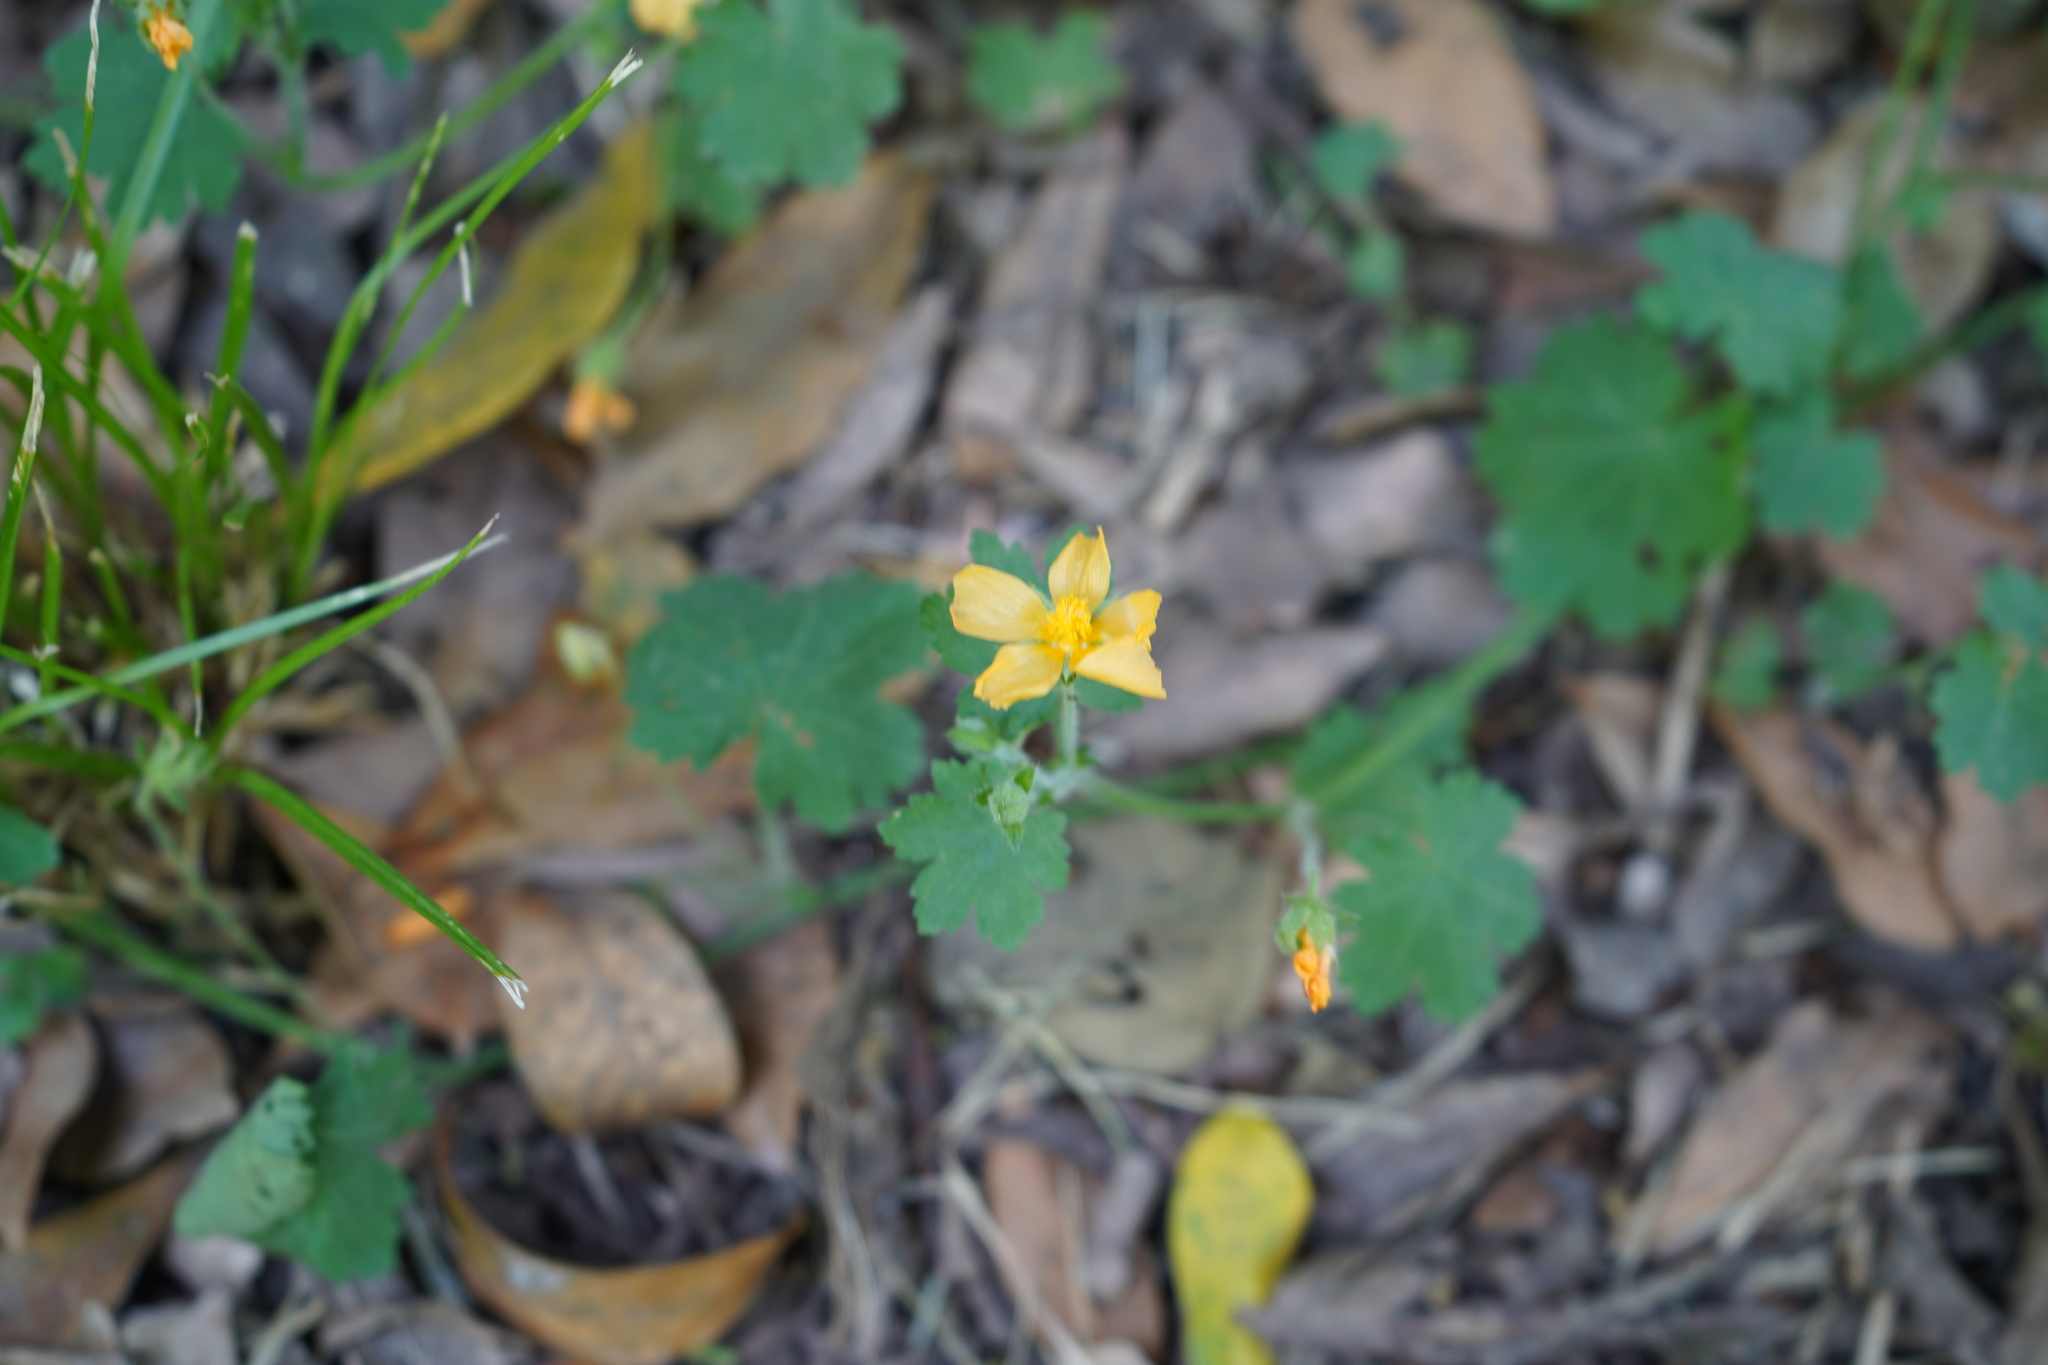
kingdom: Plantae
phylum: Tracheophyta
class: Magnoliopsida
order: Malvales
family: Malvaceae
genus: Modiolastrum
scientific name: Modiolastrum malvifolium
